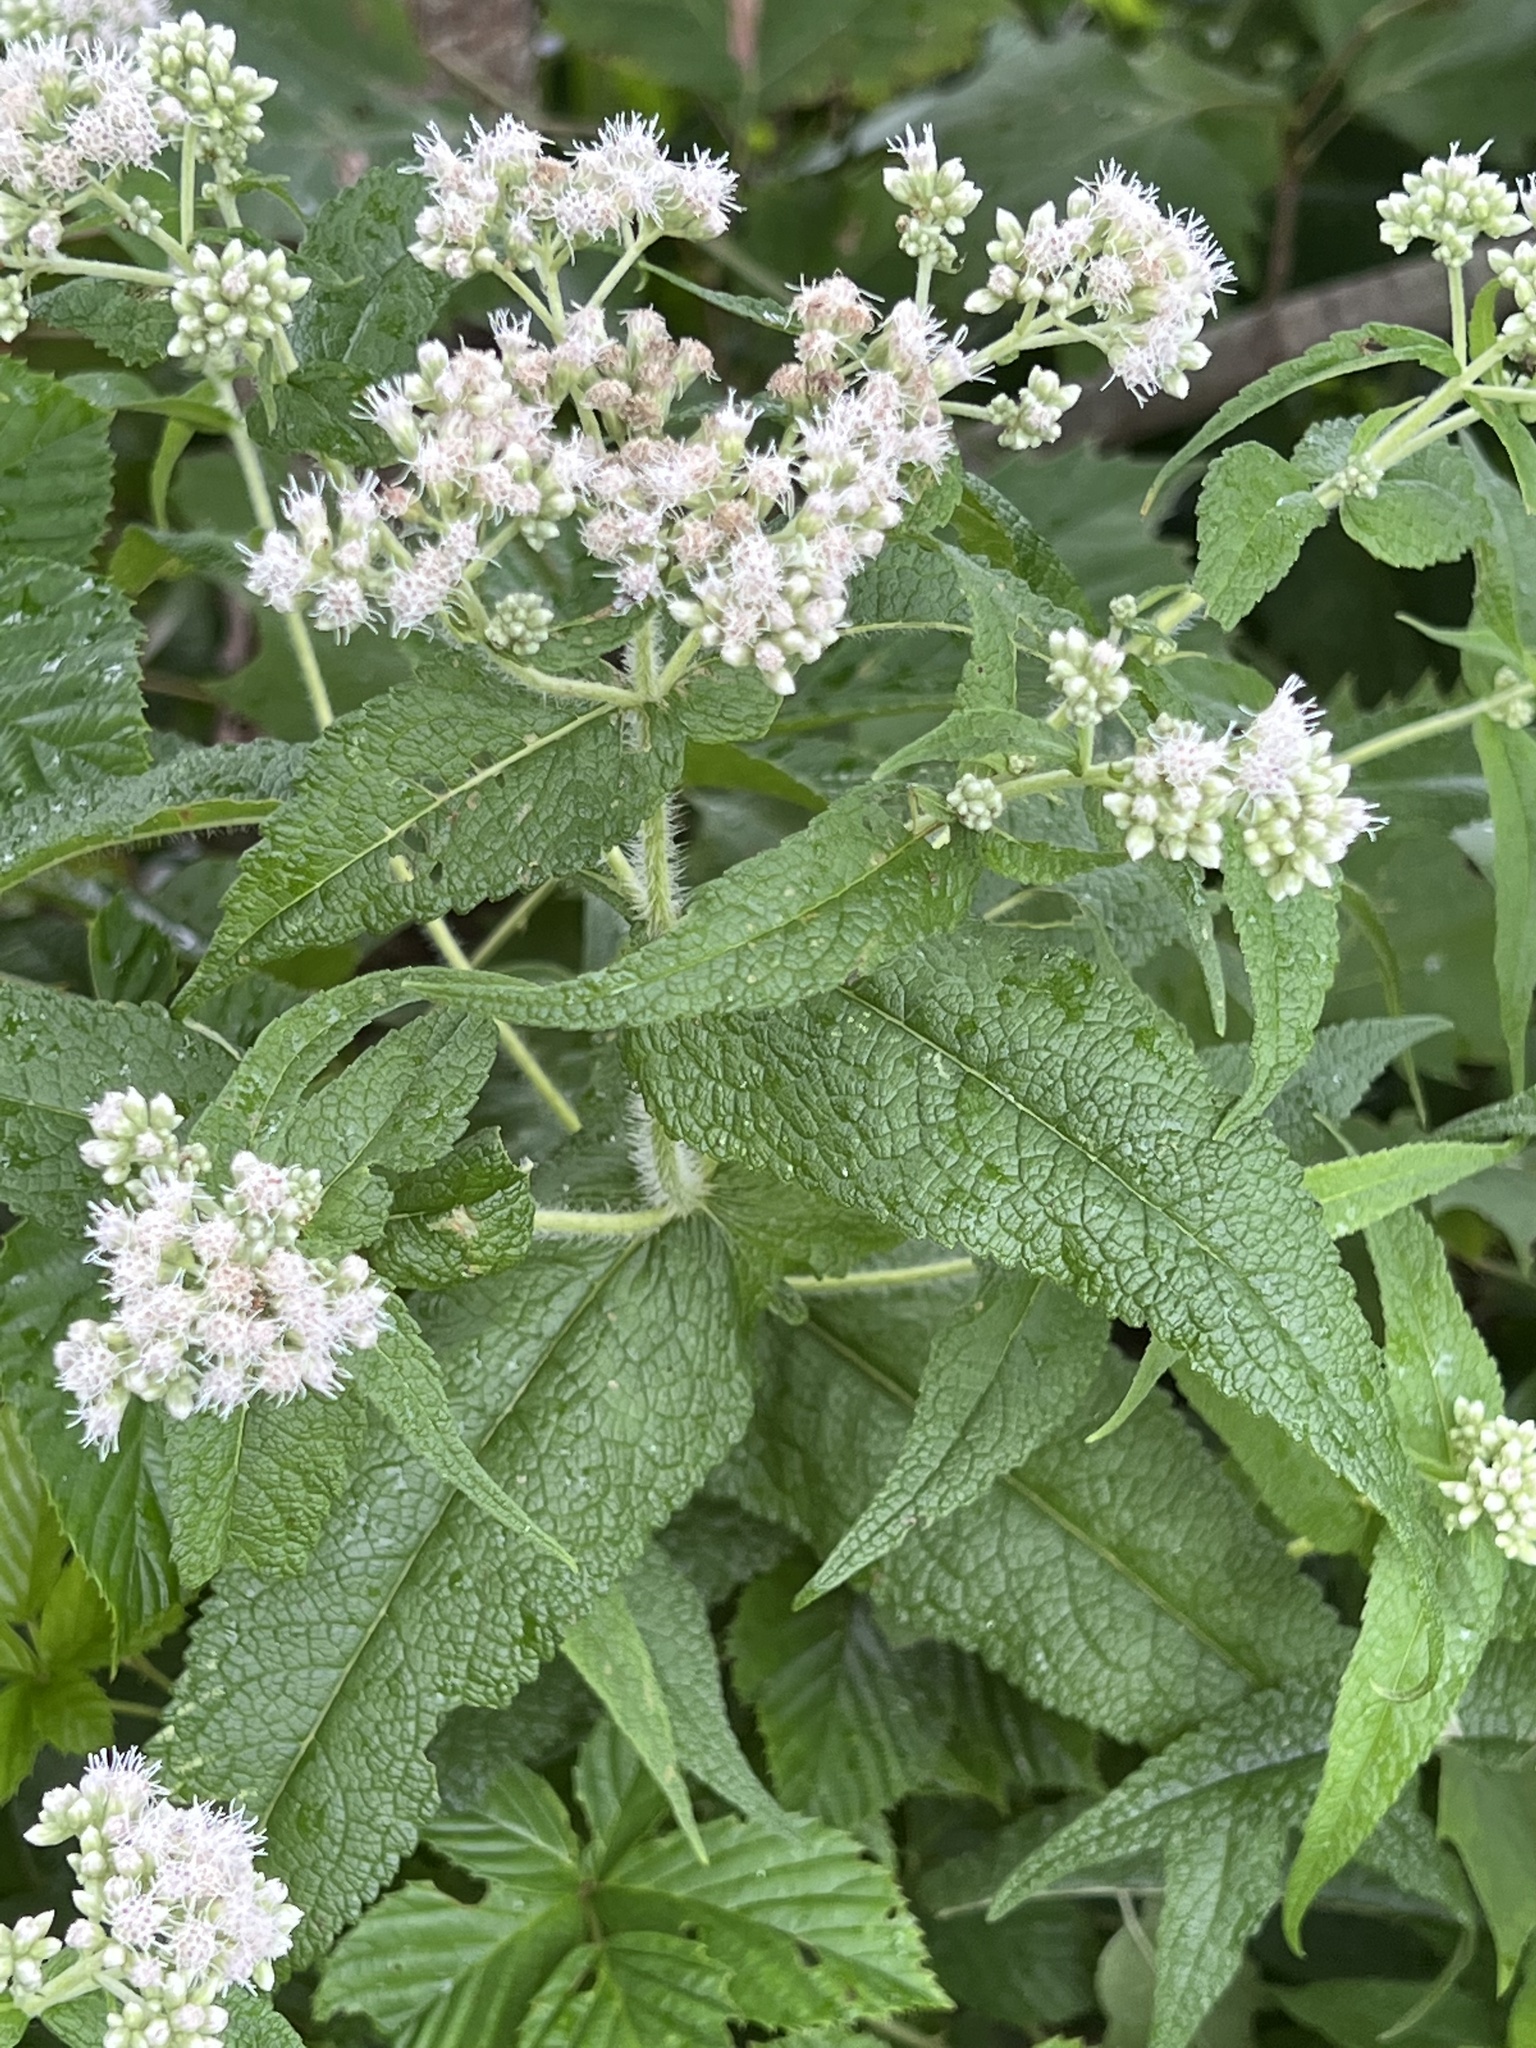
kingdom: Plantae
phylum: Tracheophyta
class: Magnoliopsida
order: Asterales
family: Asteraceae
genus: Eupatorium
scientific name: Eupatorium perfoliatum
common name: Boneset
